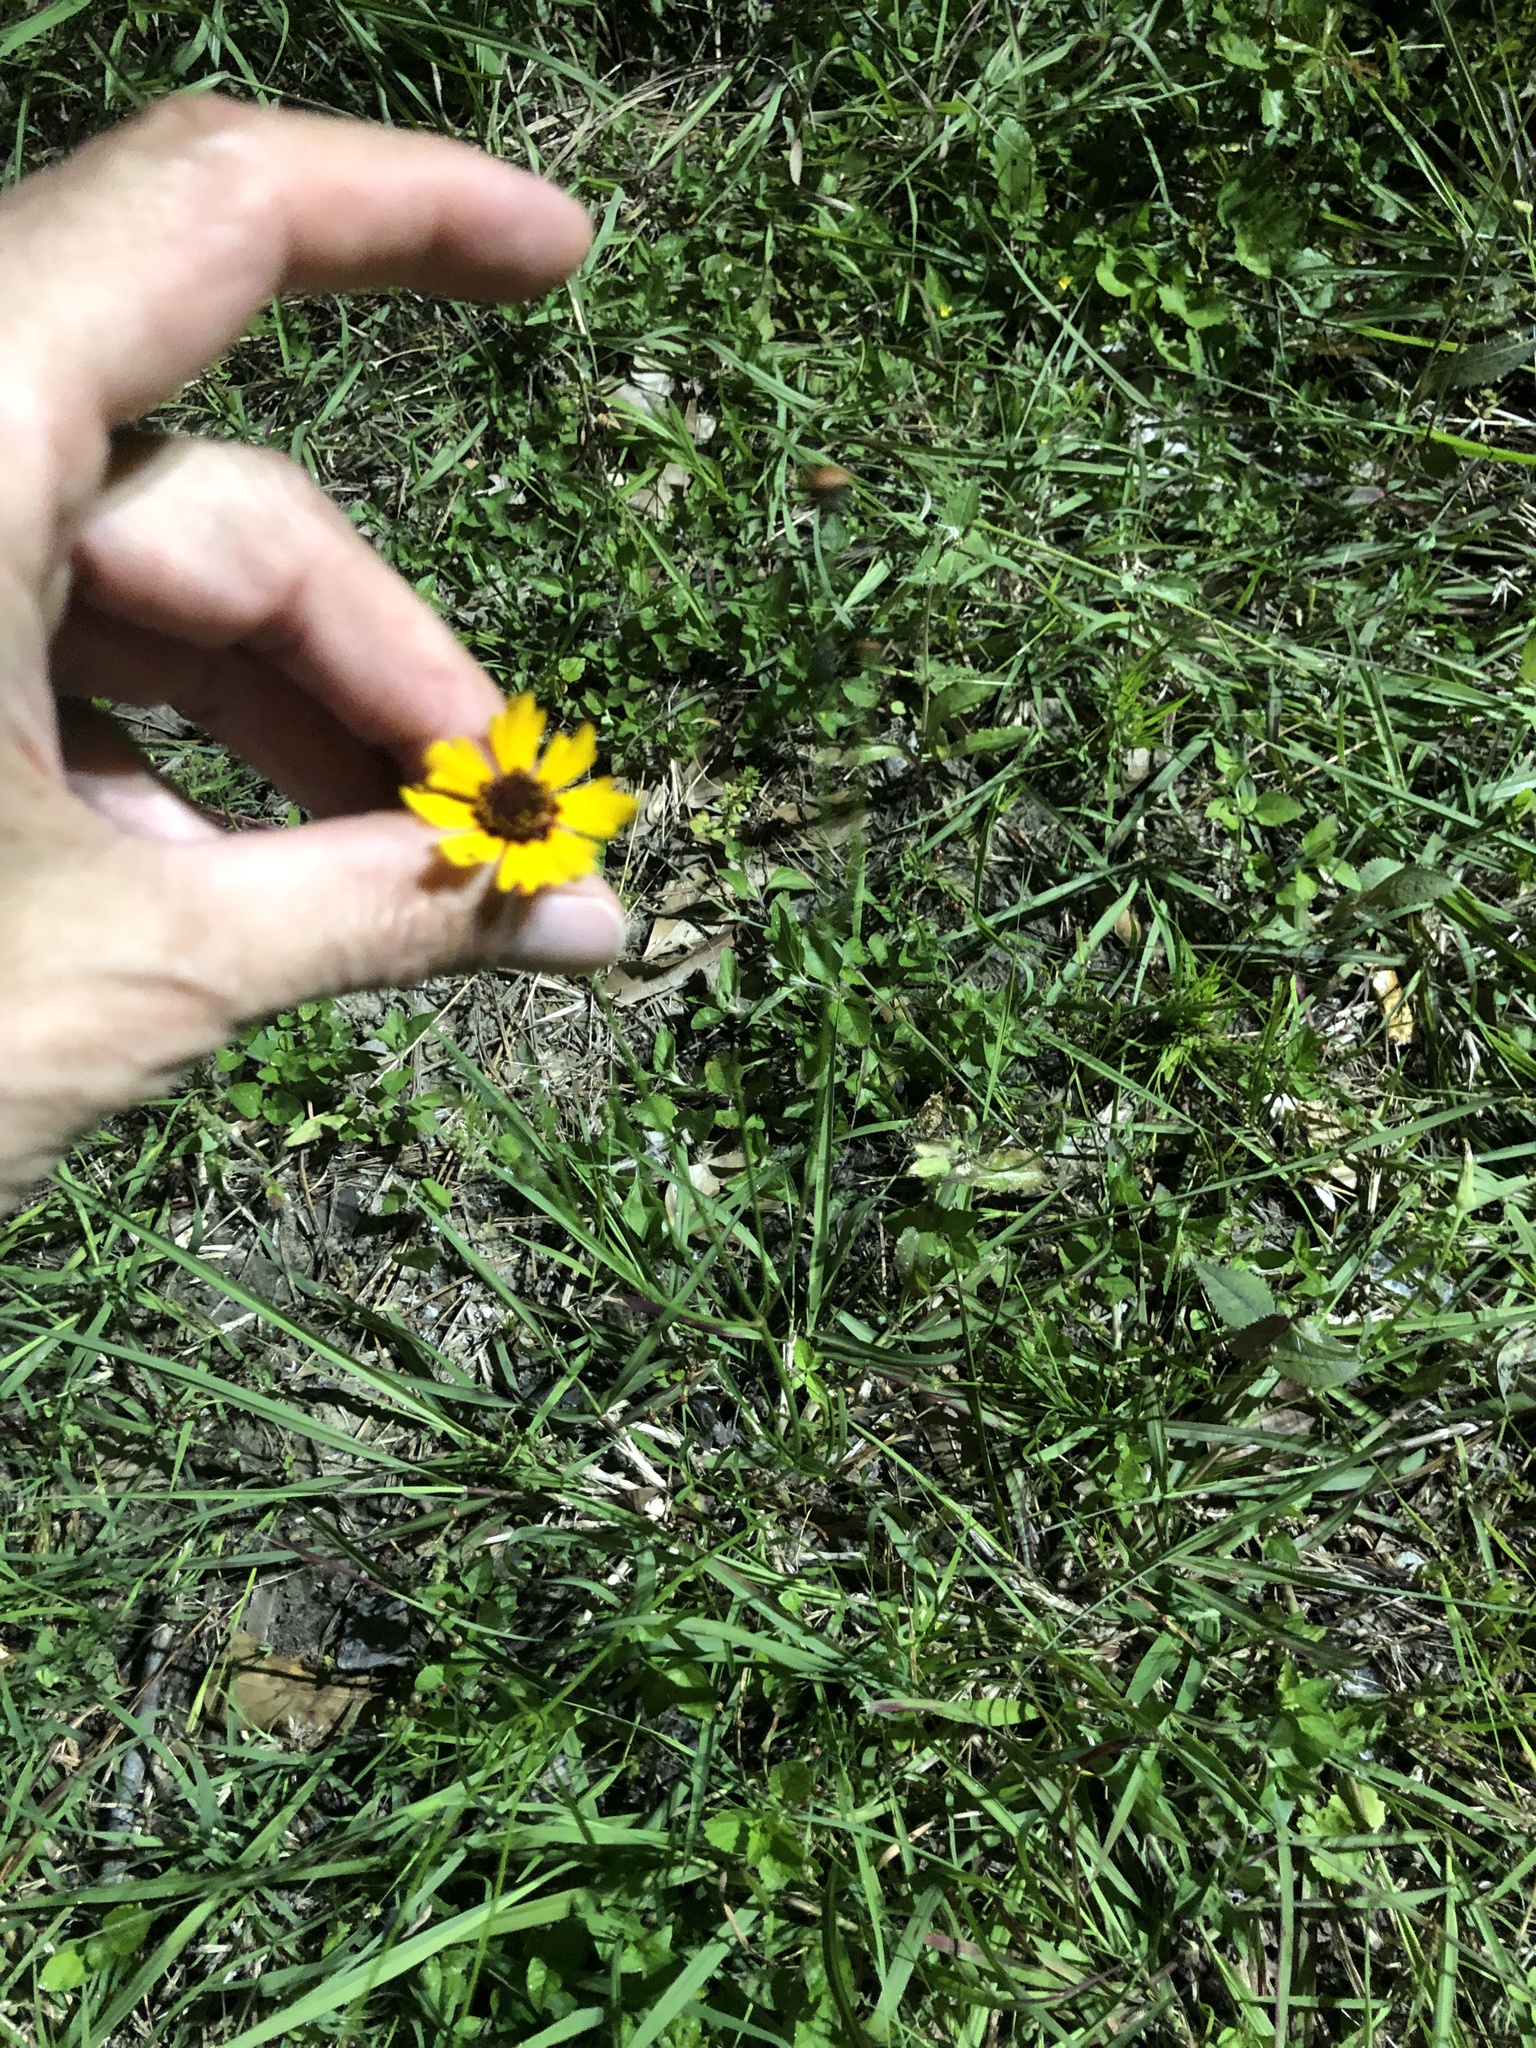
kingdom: Plantae
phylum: Tracheophyta
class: Magnoliopsida
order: Asterales
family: Asteraceae
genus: Coreopsis
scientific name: Coreopsis tinctoria
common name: Garden tickseed
